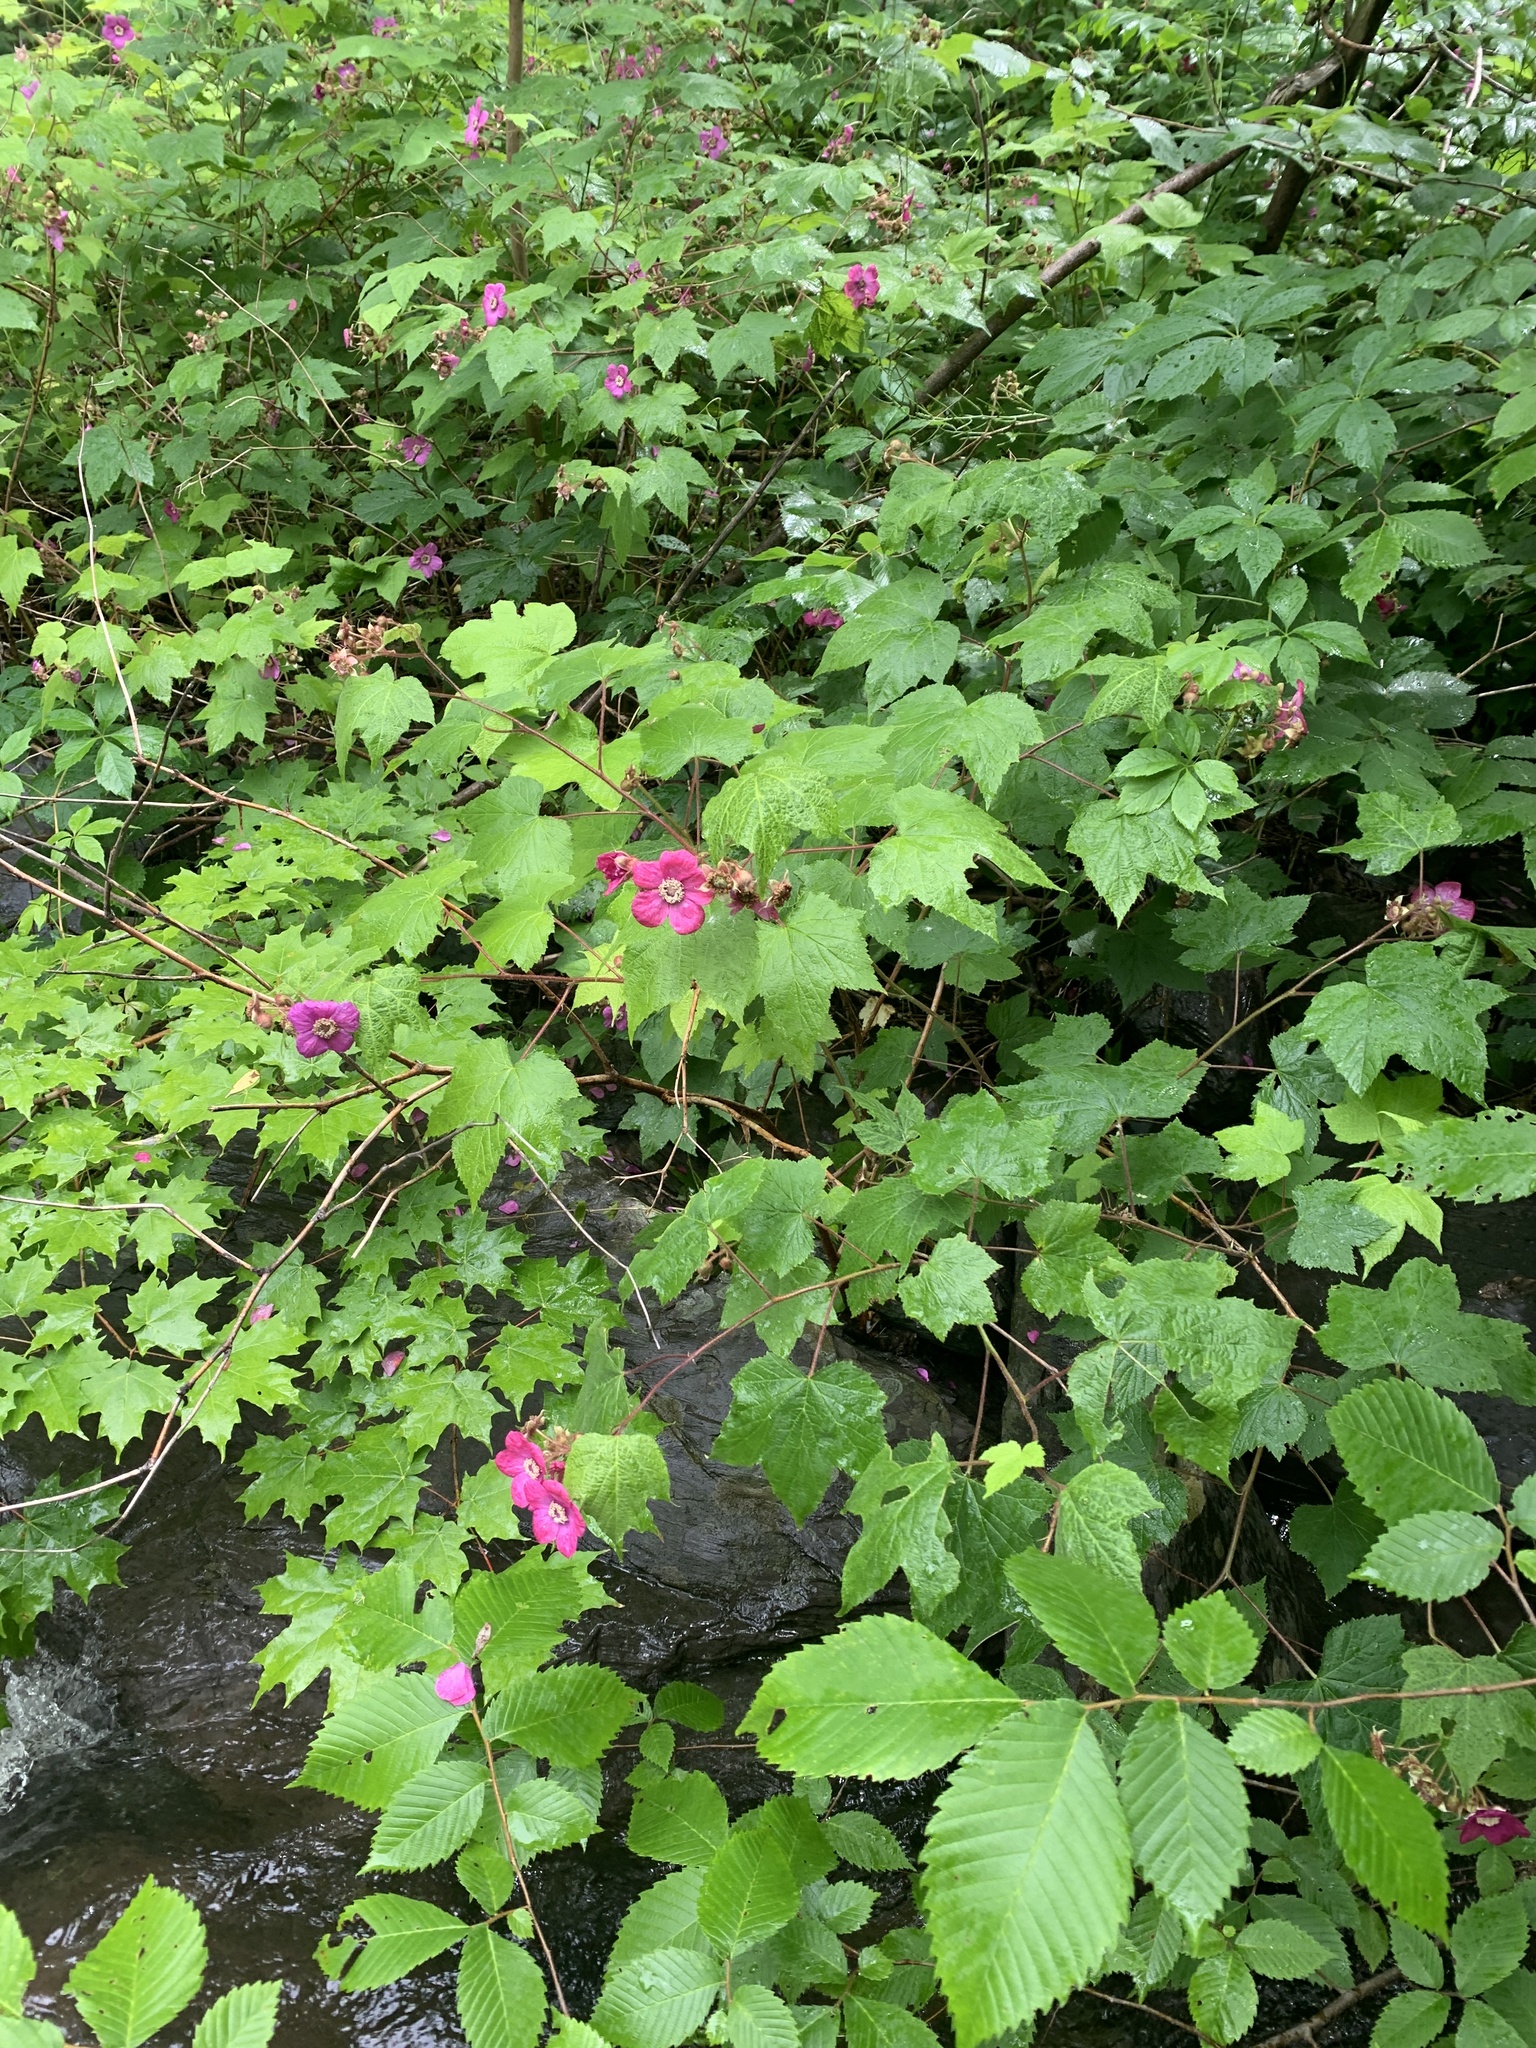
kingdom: Plantae
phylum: Tracheophyta
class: Magnoliopsida
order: Rosales
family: Rosaceae
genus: Rubus
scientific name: Rubus odoratus
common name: Purple-flowered raspberry
